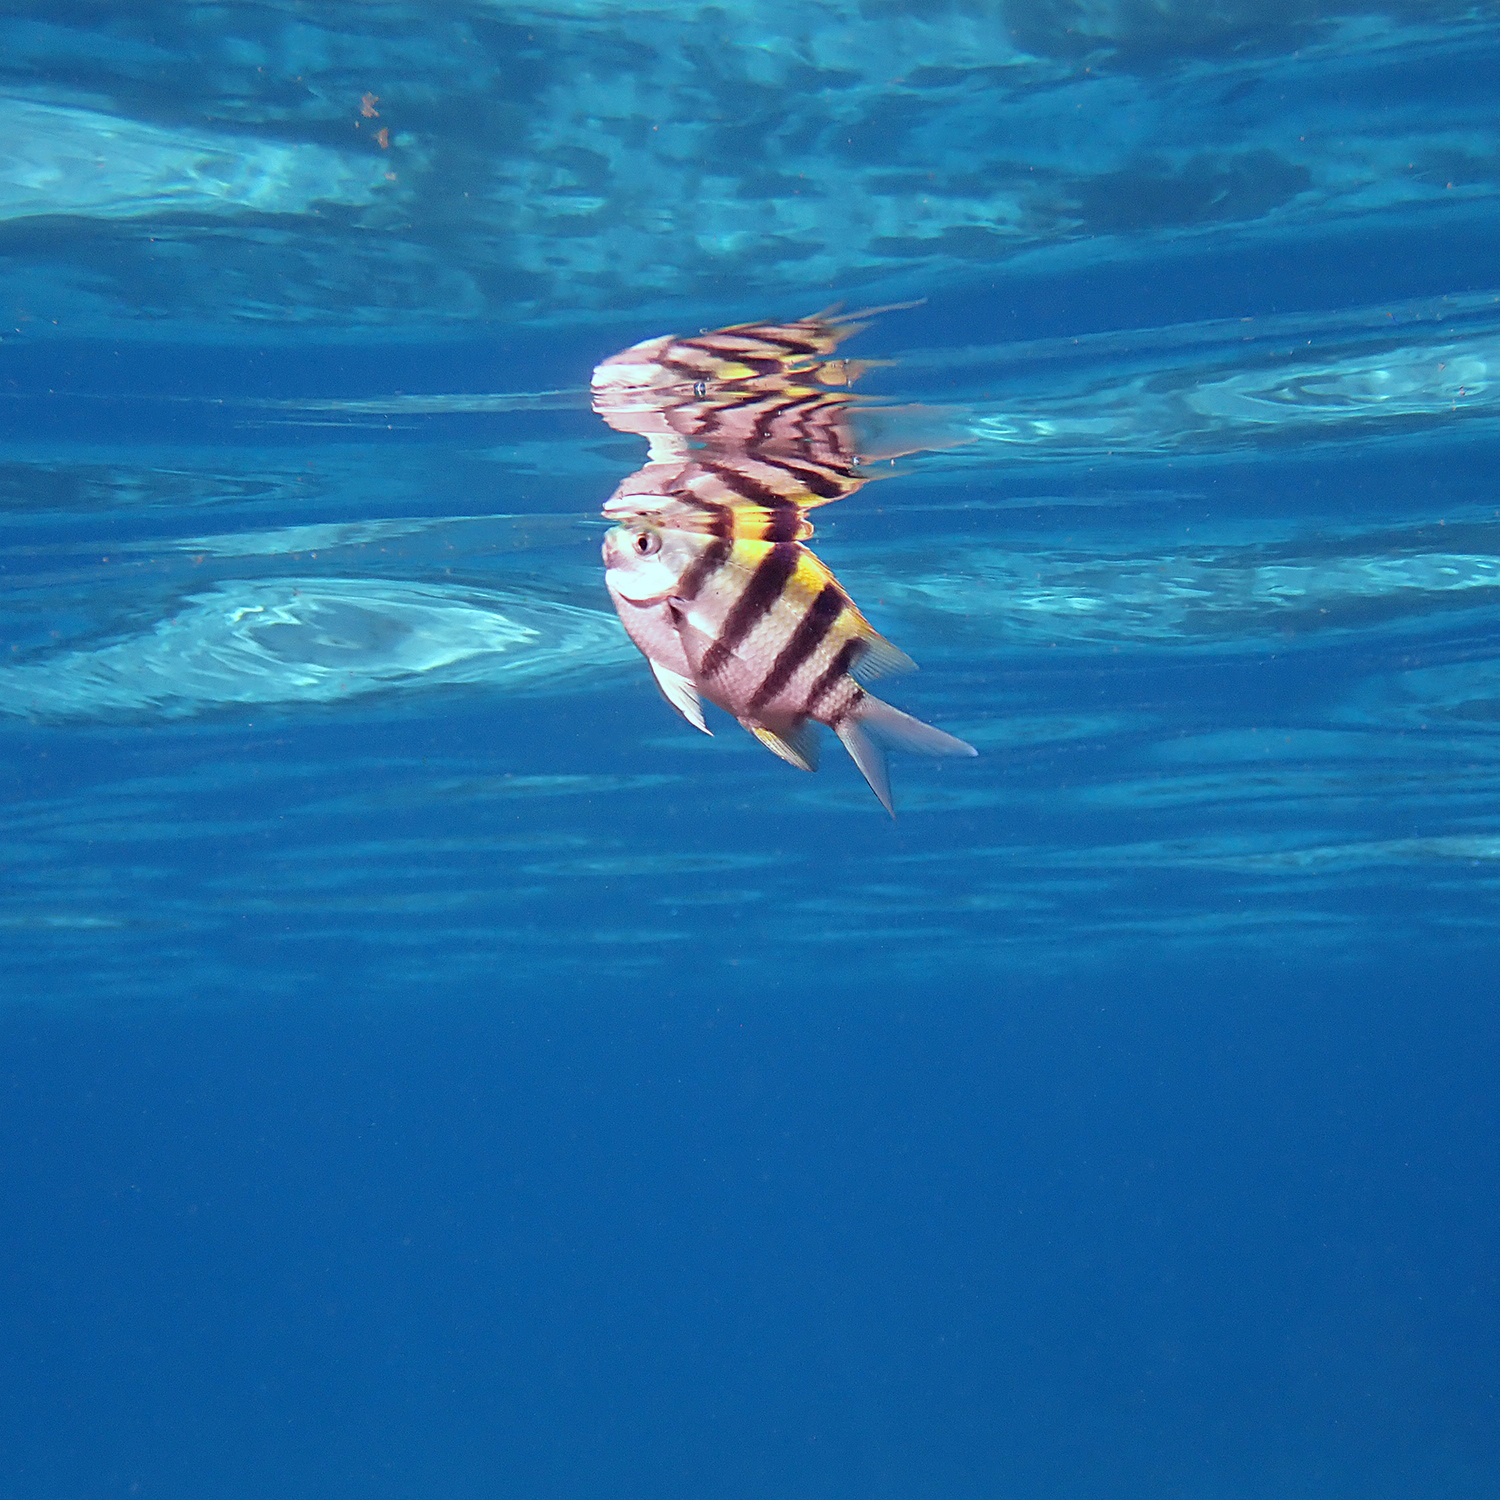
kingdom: Animalia
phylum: Chordata
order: Perciformes
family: Pomacentridae
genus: Abudefduf
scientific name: Abudefduf vaigiensis
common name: Indo-pacific sergeant
